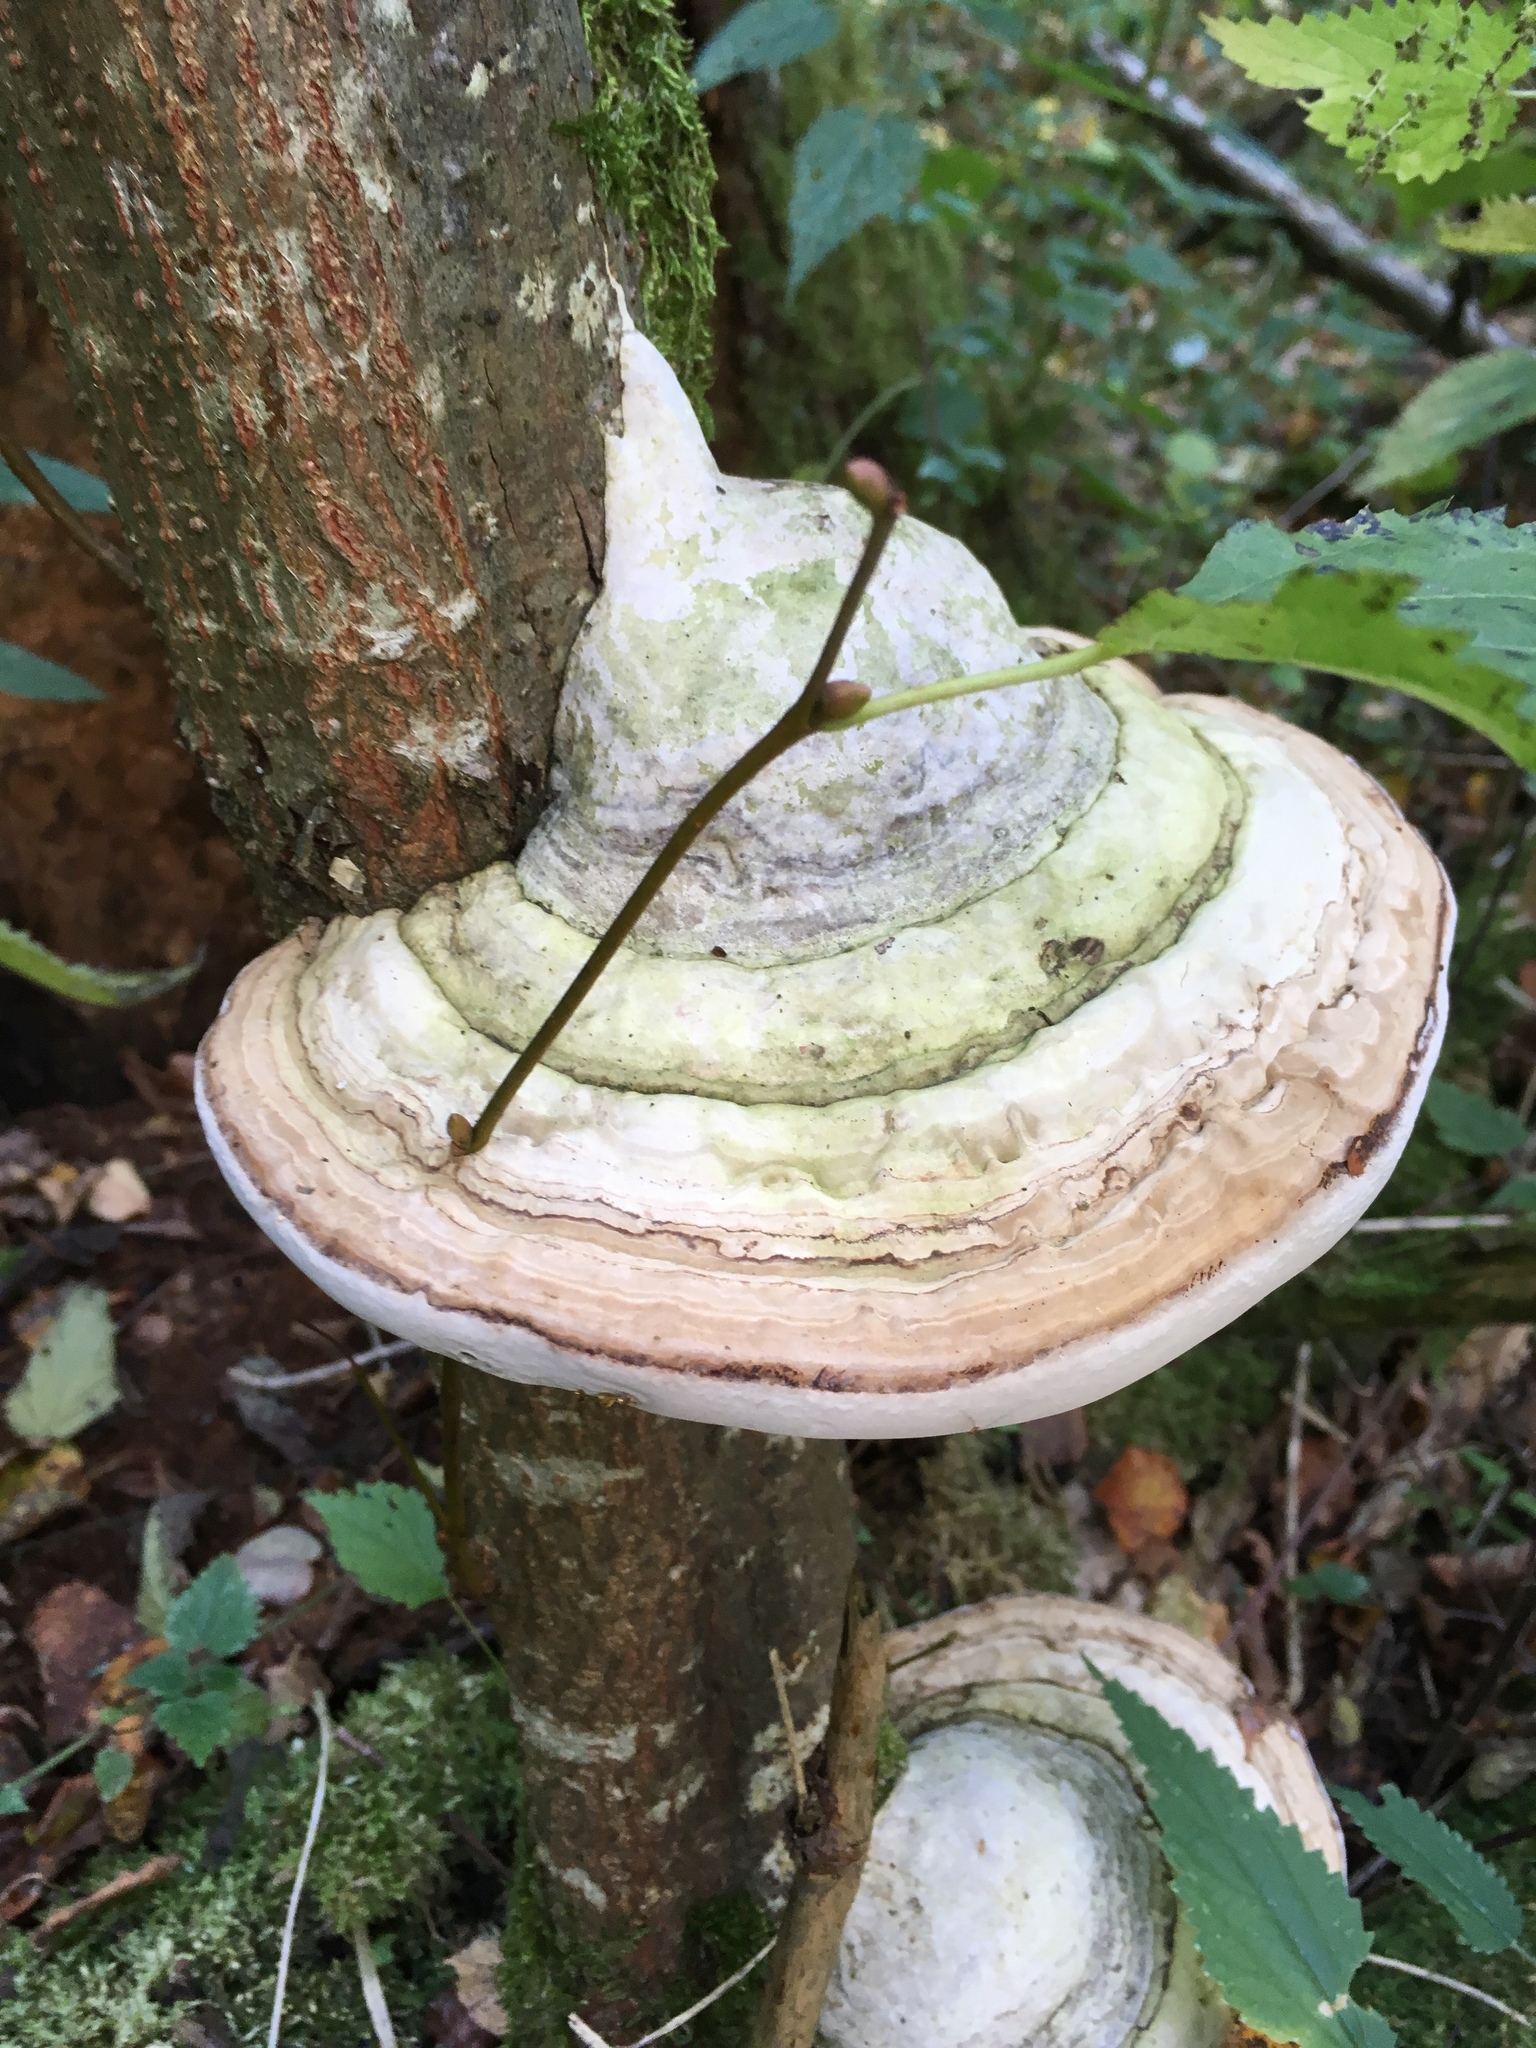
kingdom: Fungi
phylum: Basidiomycota
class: Agaricomycetes
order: Polyporales
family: Polyporaceae
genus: Fomes
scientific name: Fomes fomentarius
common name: Hoof fungus
